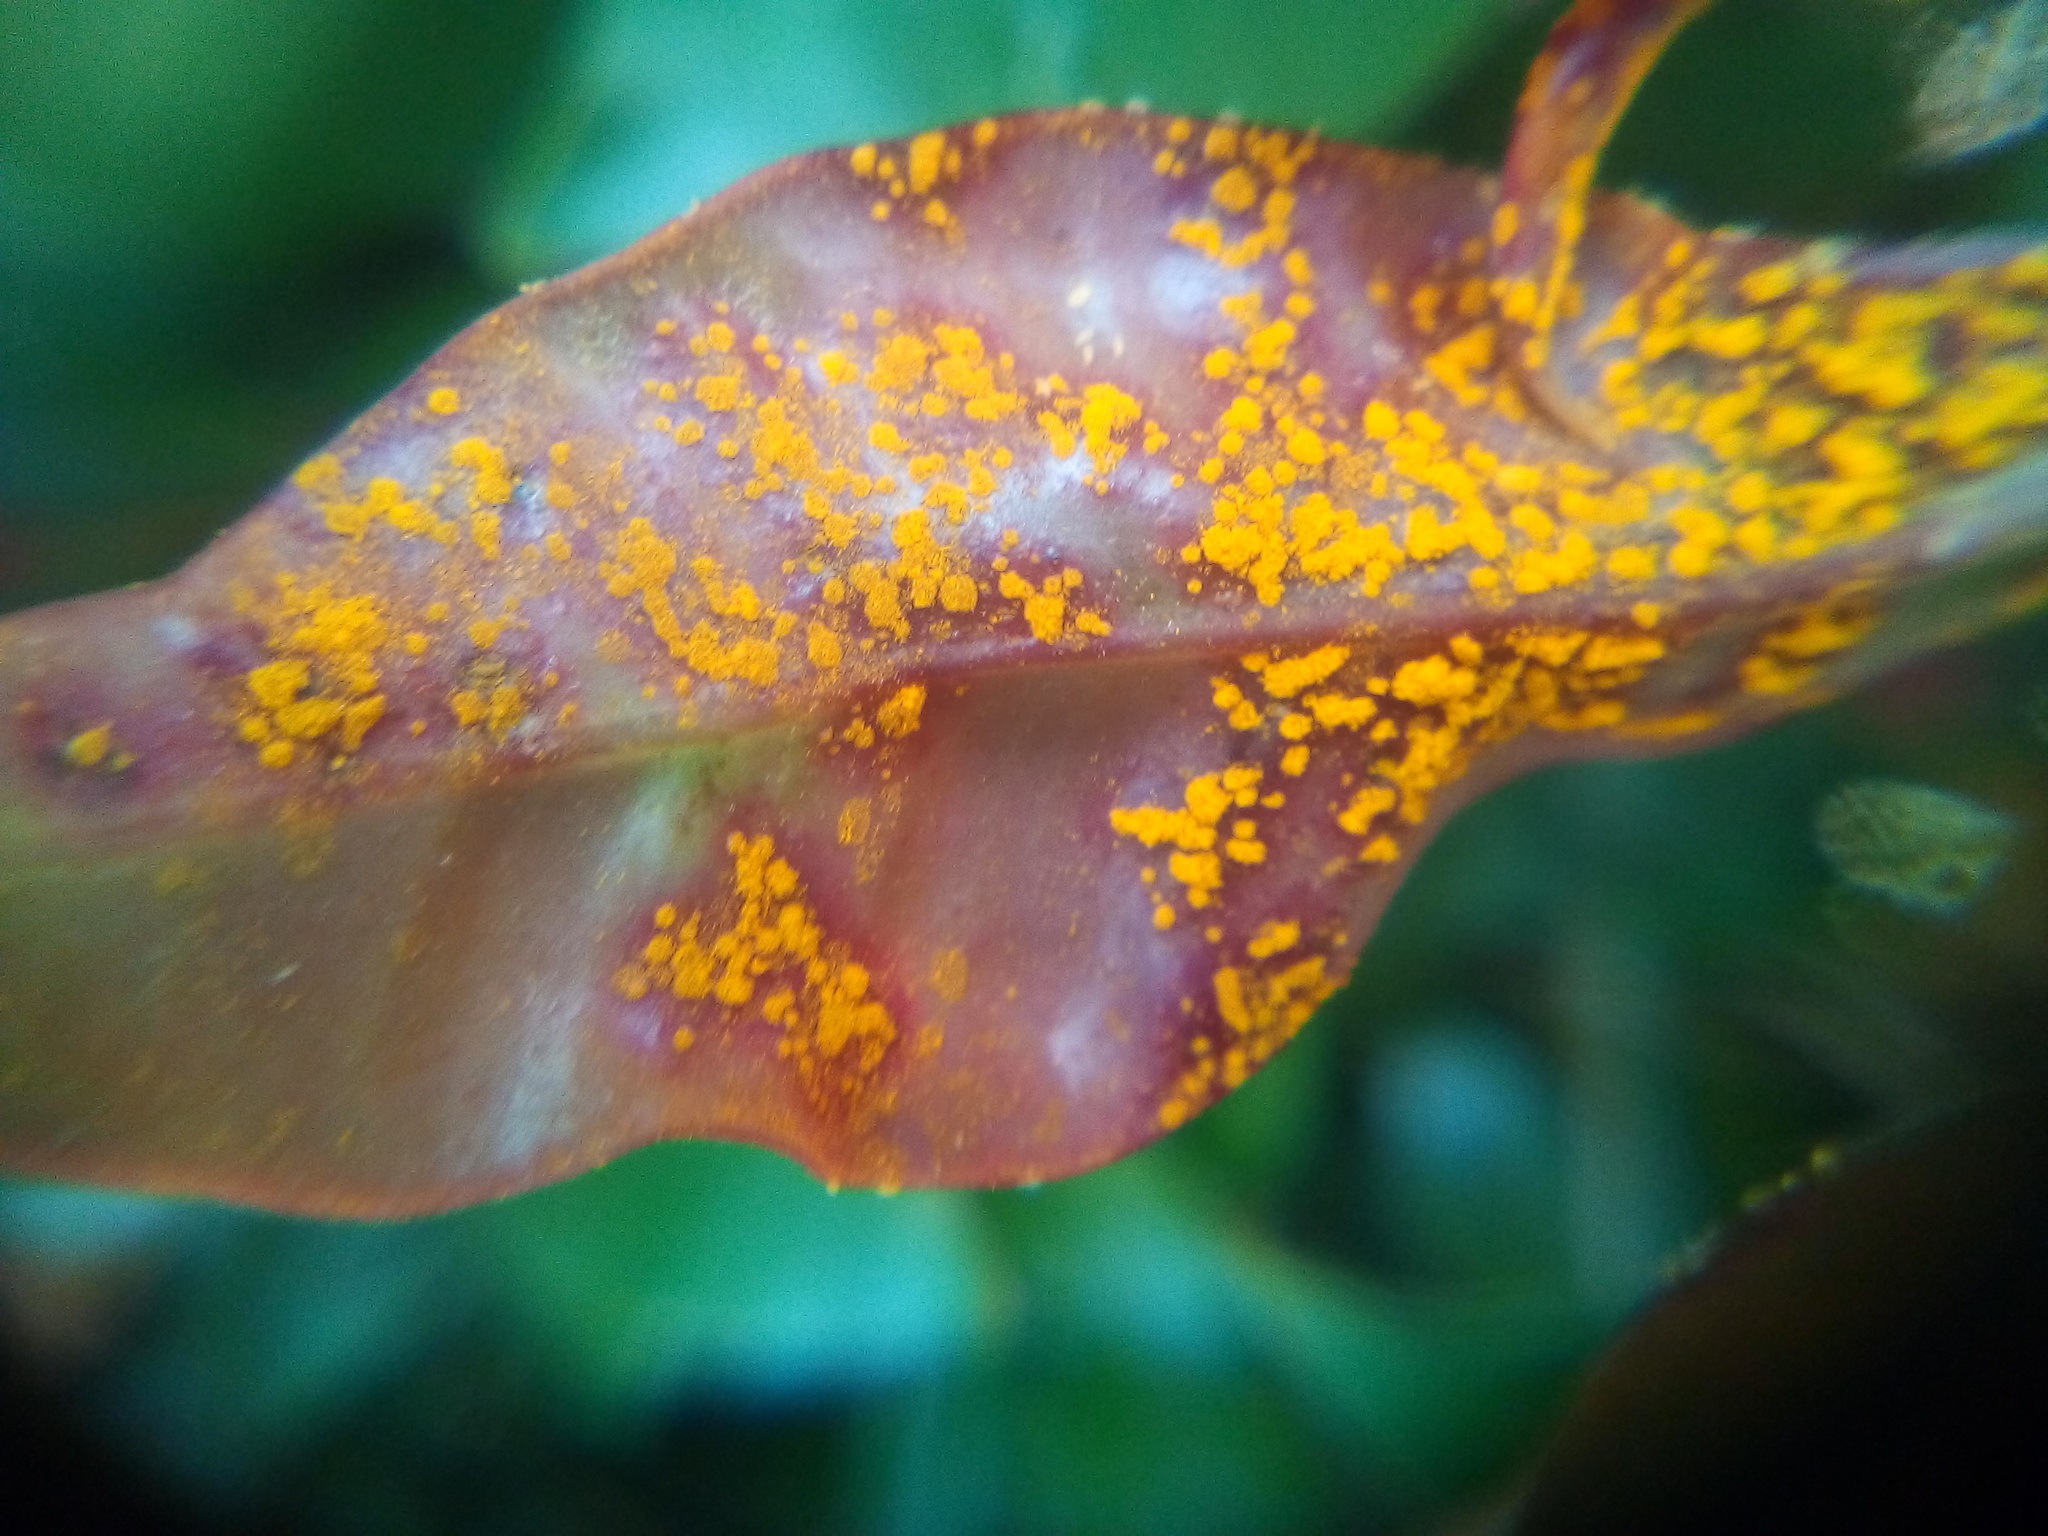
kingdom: Fungi
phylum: Basidiomycota
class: Pucciniomycetes
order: Pucciniales
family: Sphaerophragmiaceae
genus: Austropuccinia
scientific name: Austropuccinia psidii
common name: Myrtle rust
